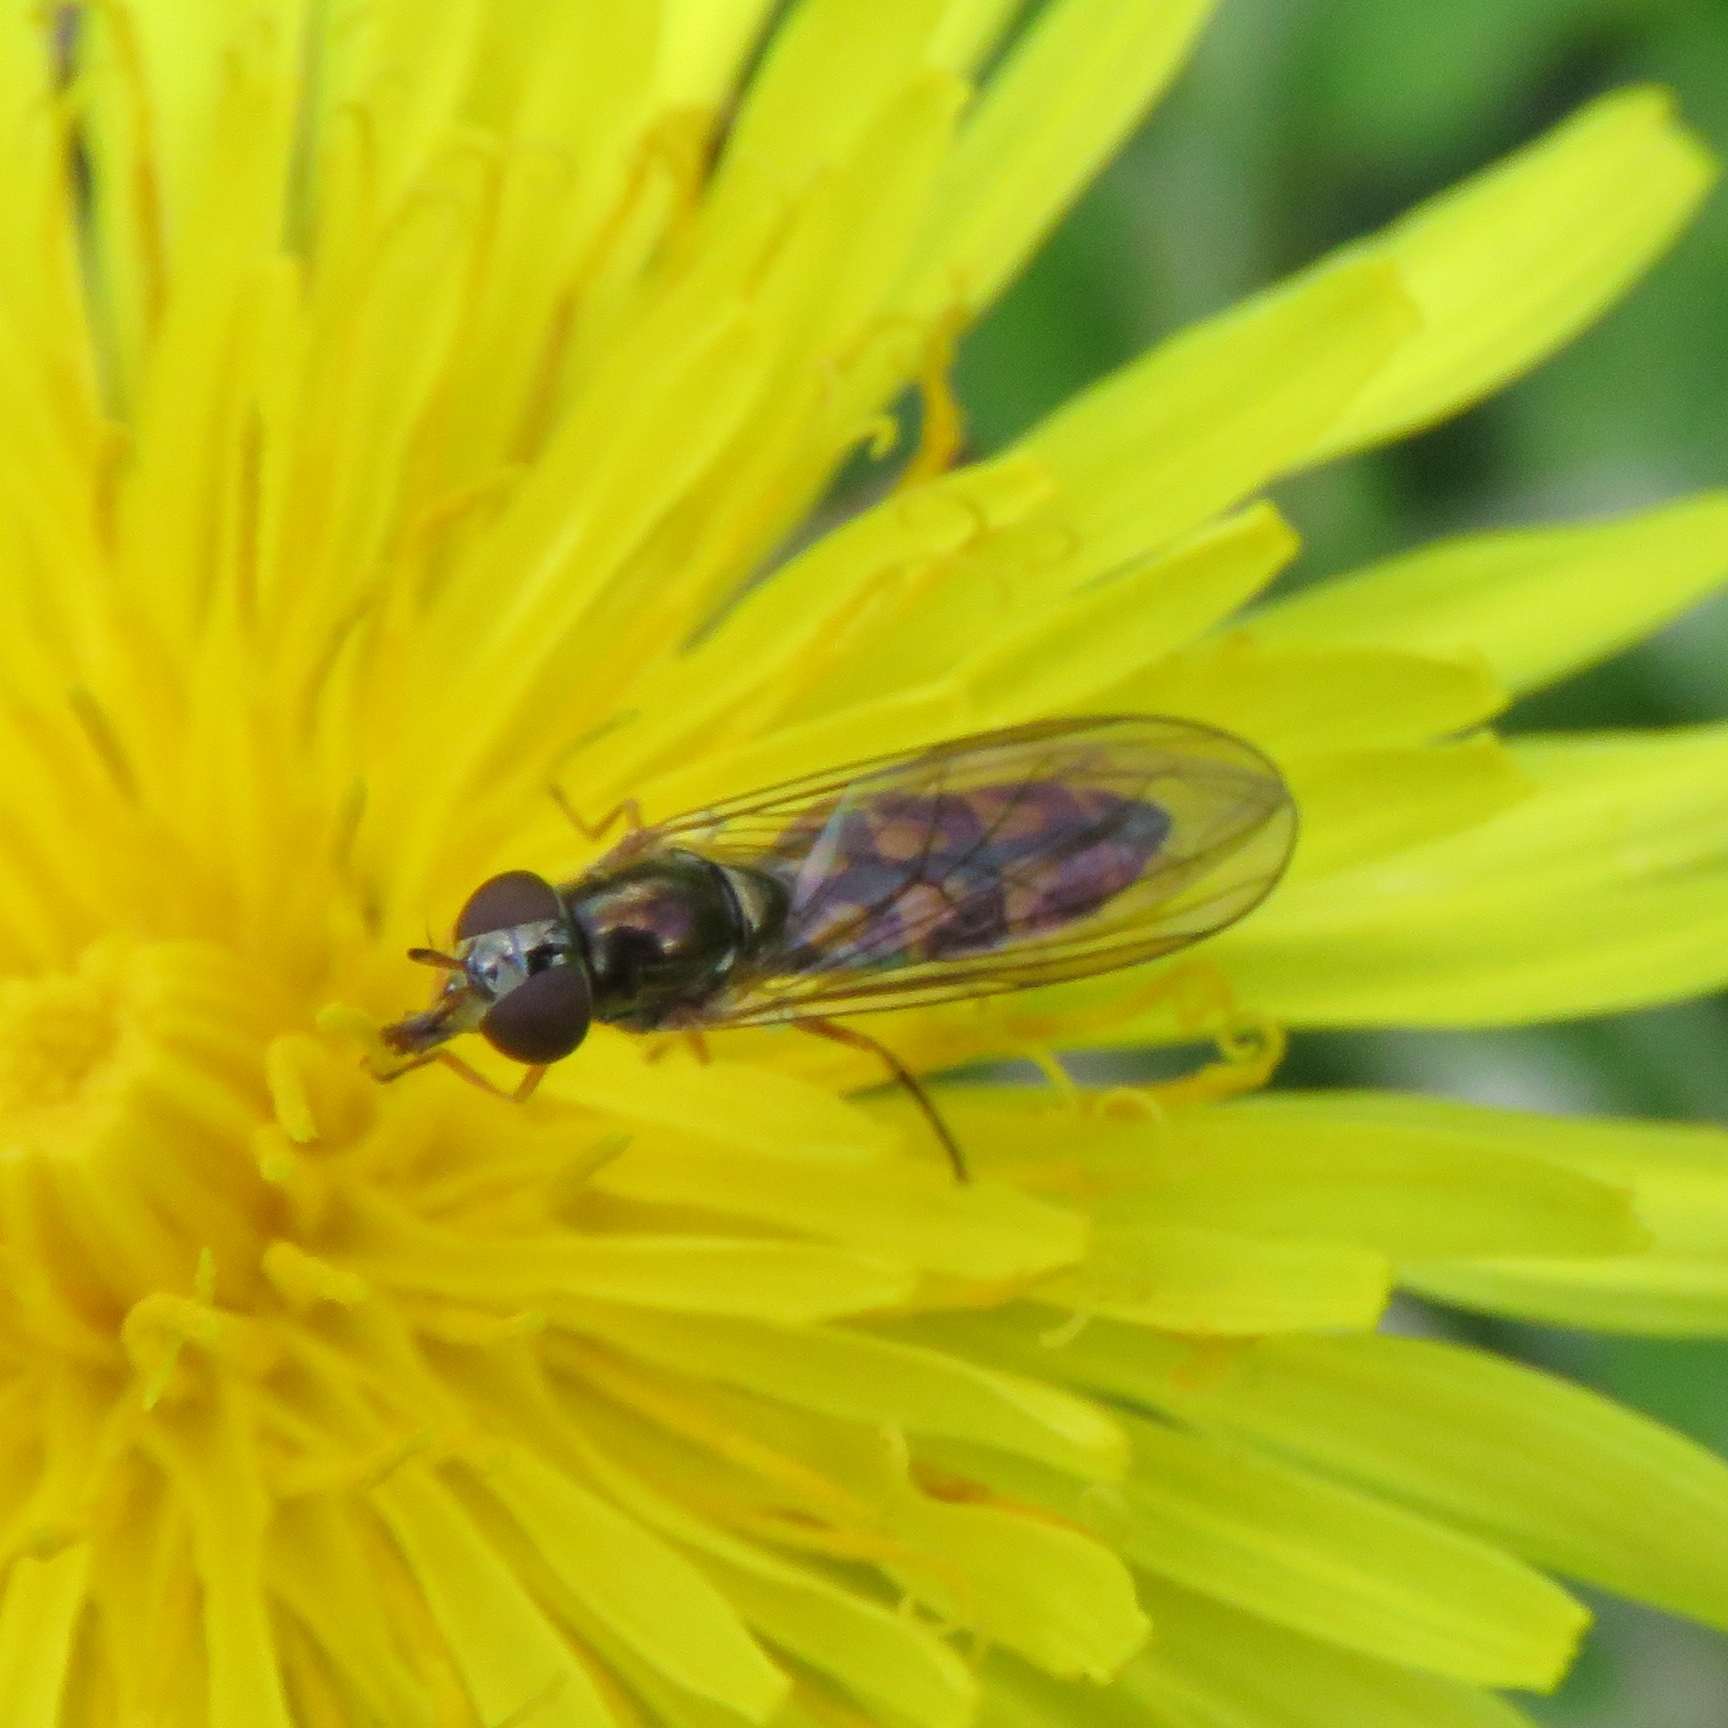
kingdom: Animalia
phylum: Arthropoda
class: Insecta
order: Diptera
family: Syrphidae
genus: Melanostoma
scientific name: Melanostoma scalare
